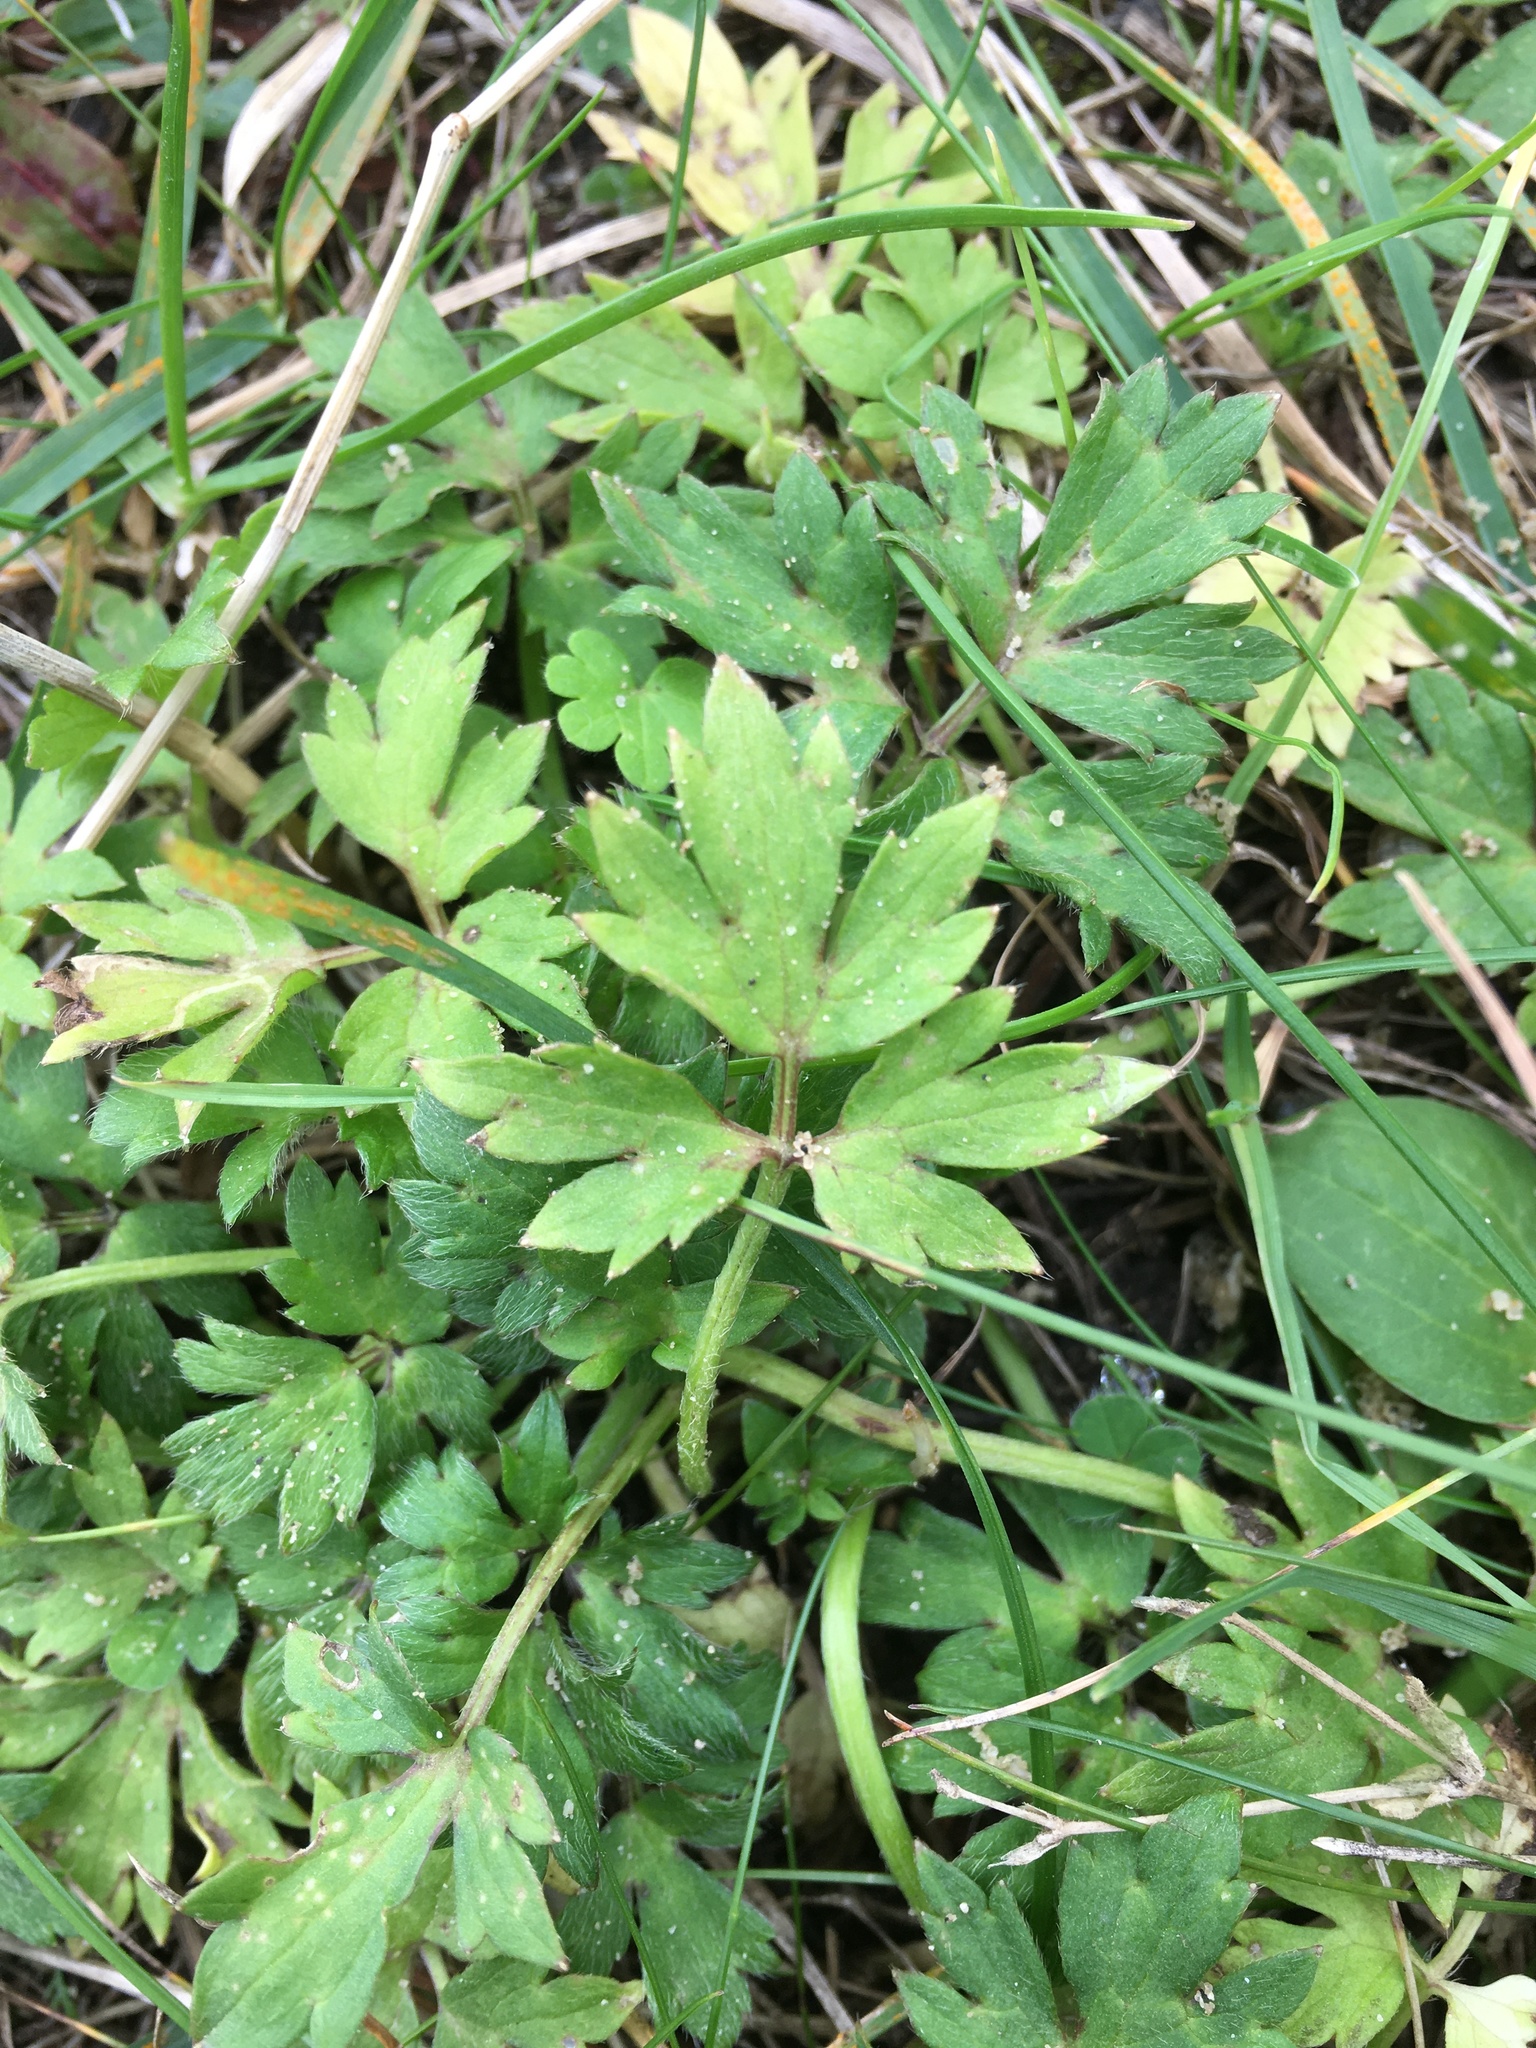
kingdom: Plantae
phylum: Tracheophyta
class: Magnoliopsida
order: Ranunculales
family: Ranunculaceae
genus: Ranunculus
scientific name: Ranunculus repens
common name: Creeping buttercup
